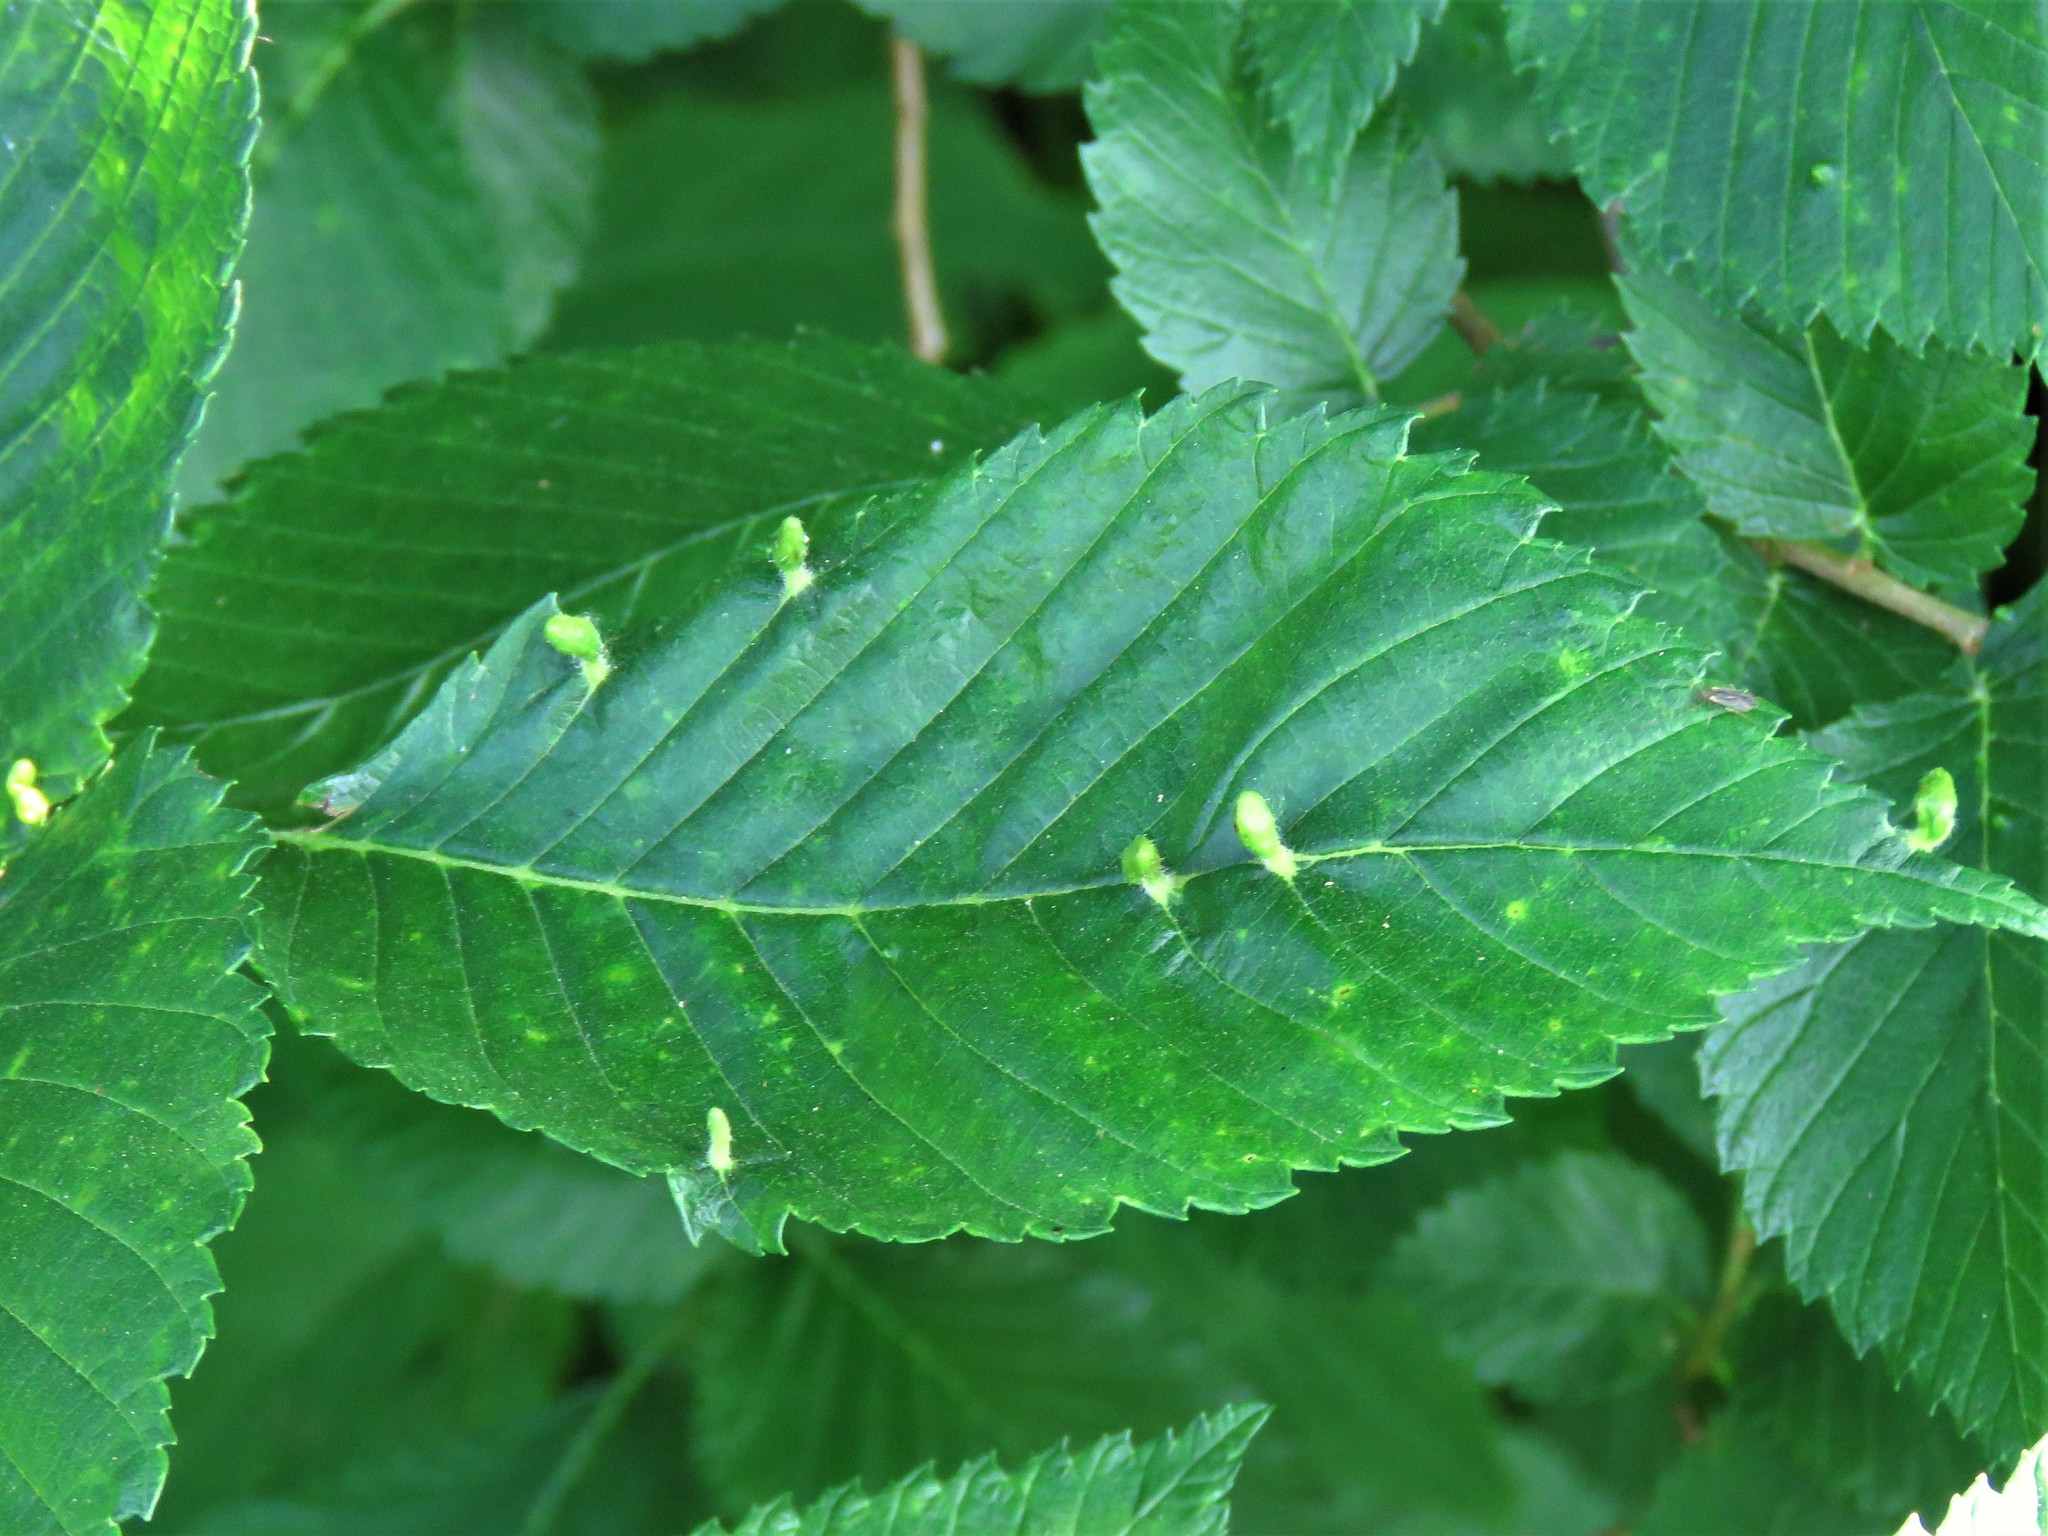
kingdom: Animalia
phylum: Arthropoda
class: Arachnida
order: Trombidiformes
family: Eriophyidae
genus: Aceria
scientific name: Aceria
